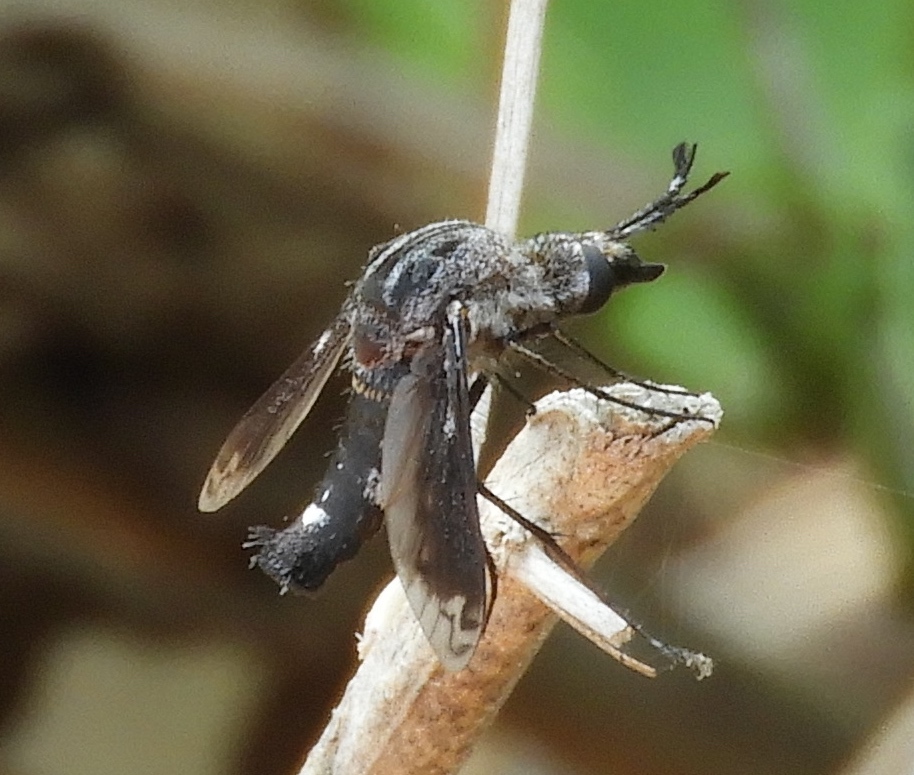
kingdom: Animalia
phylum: Arthropoda
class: Insecta
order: Diptera
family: Bombyliidae
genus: Lepidophora
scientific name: Lepidophora vetusta
